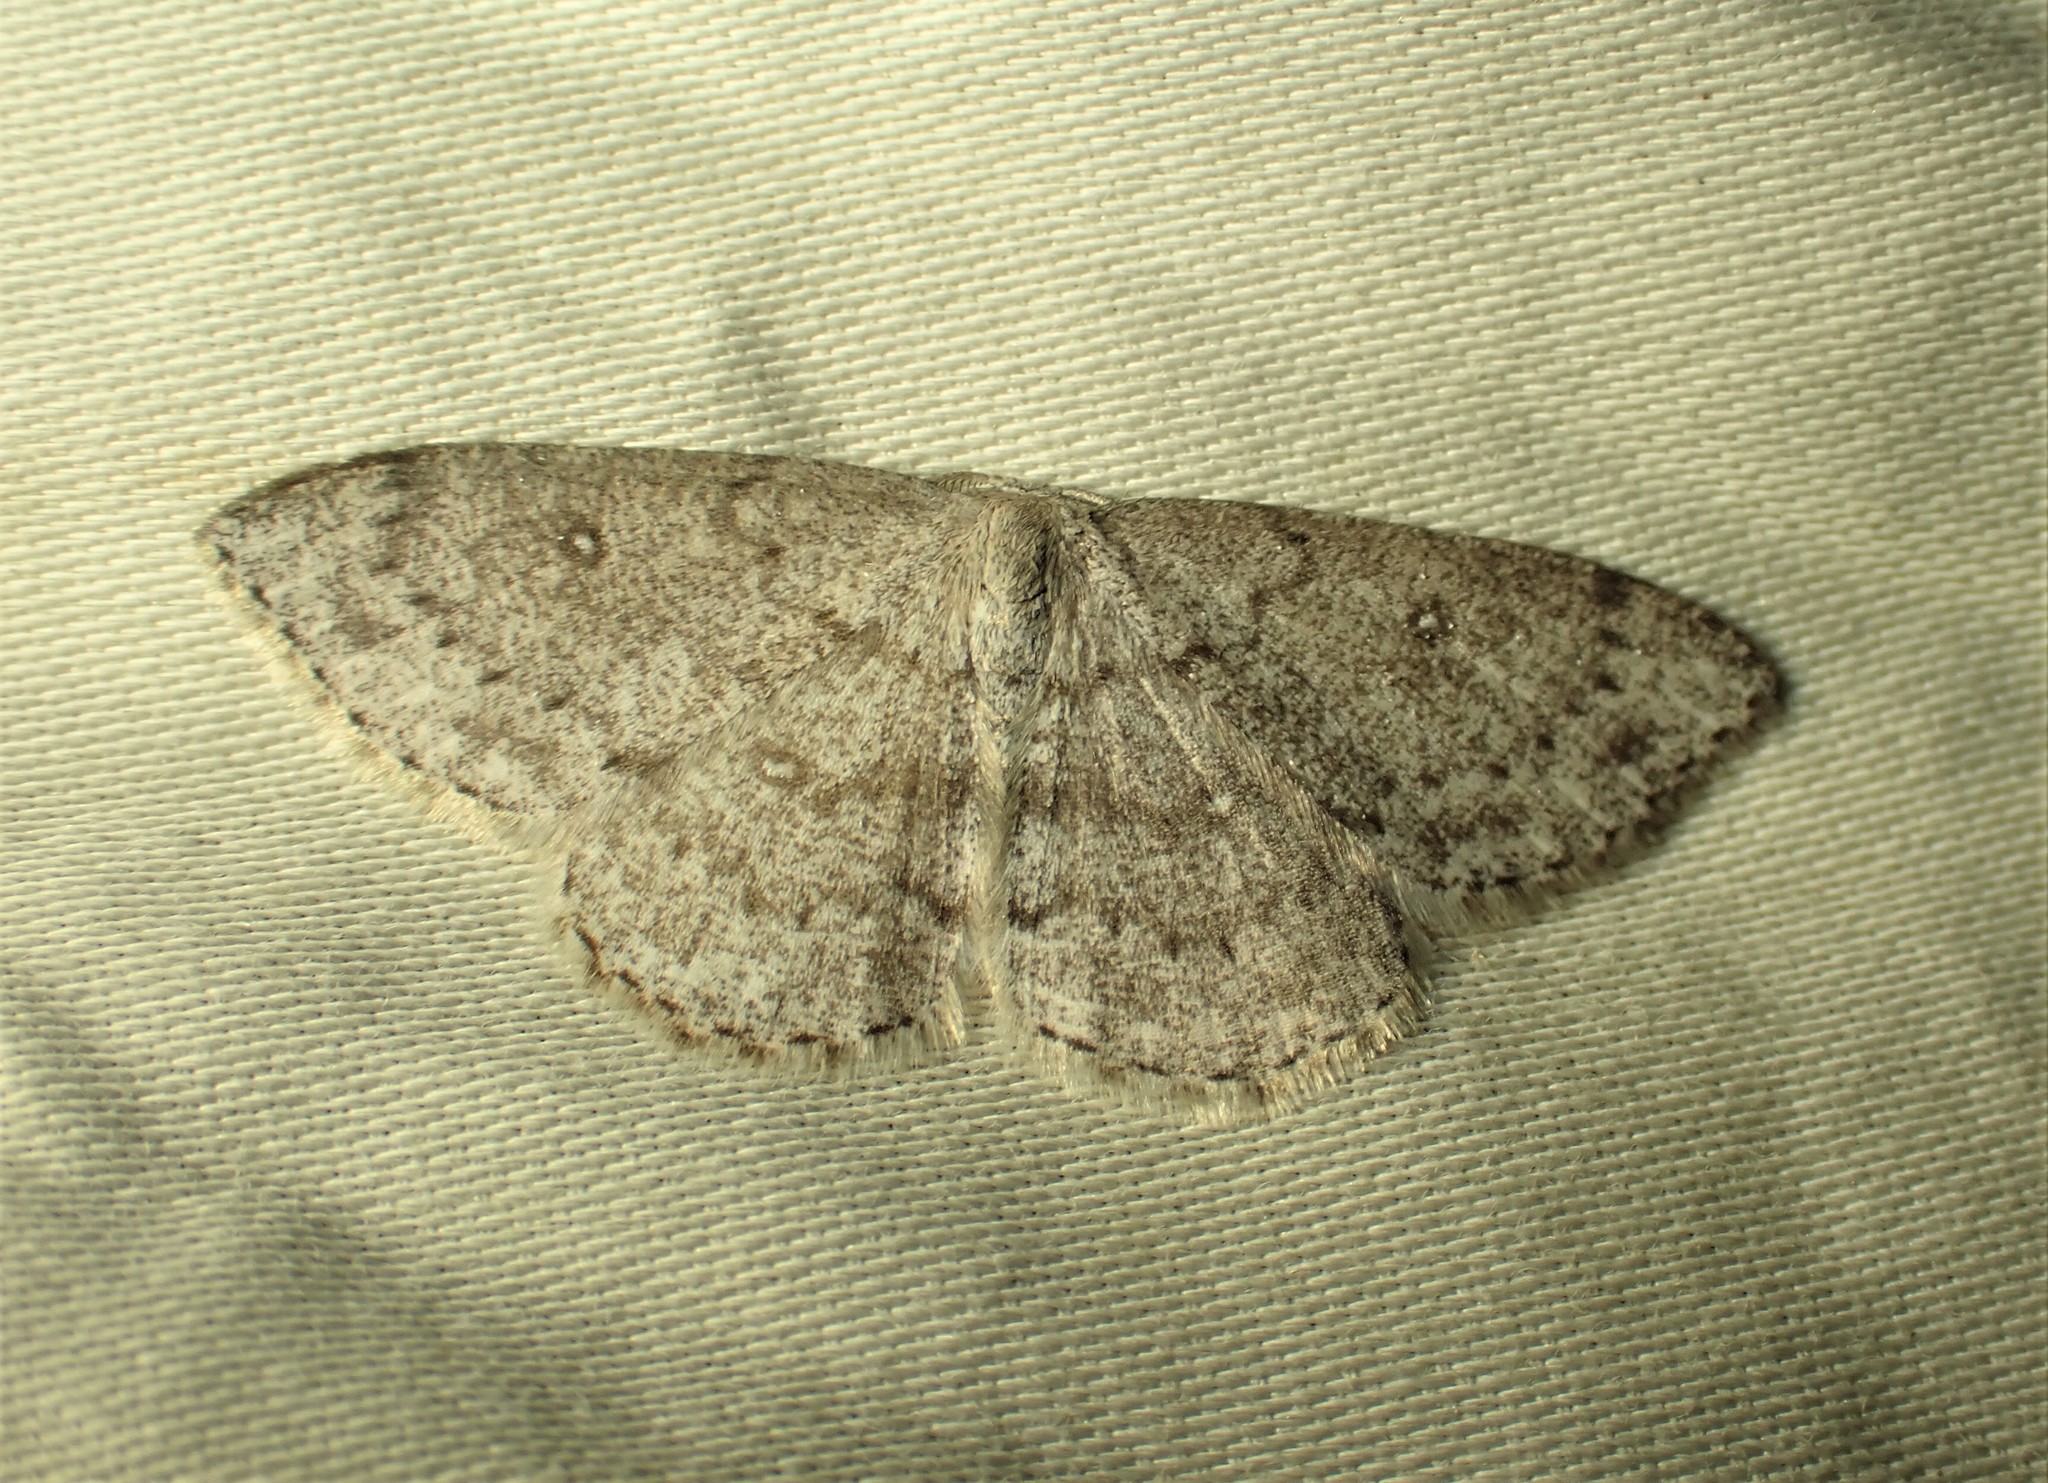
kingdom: Animalia
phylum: Arthropoda
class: Insecta
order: Lepidoptera
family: Geometridae
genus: Cyclophora
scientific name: Cyclophora pendulinaria
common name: Sweet fern geometer
